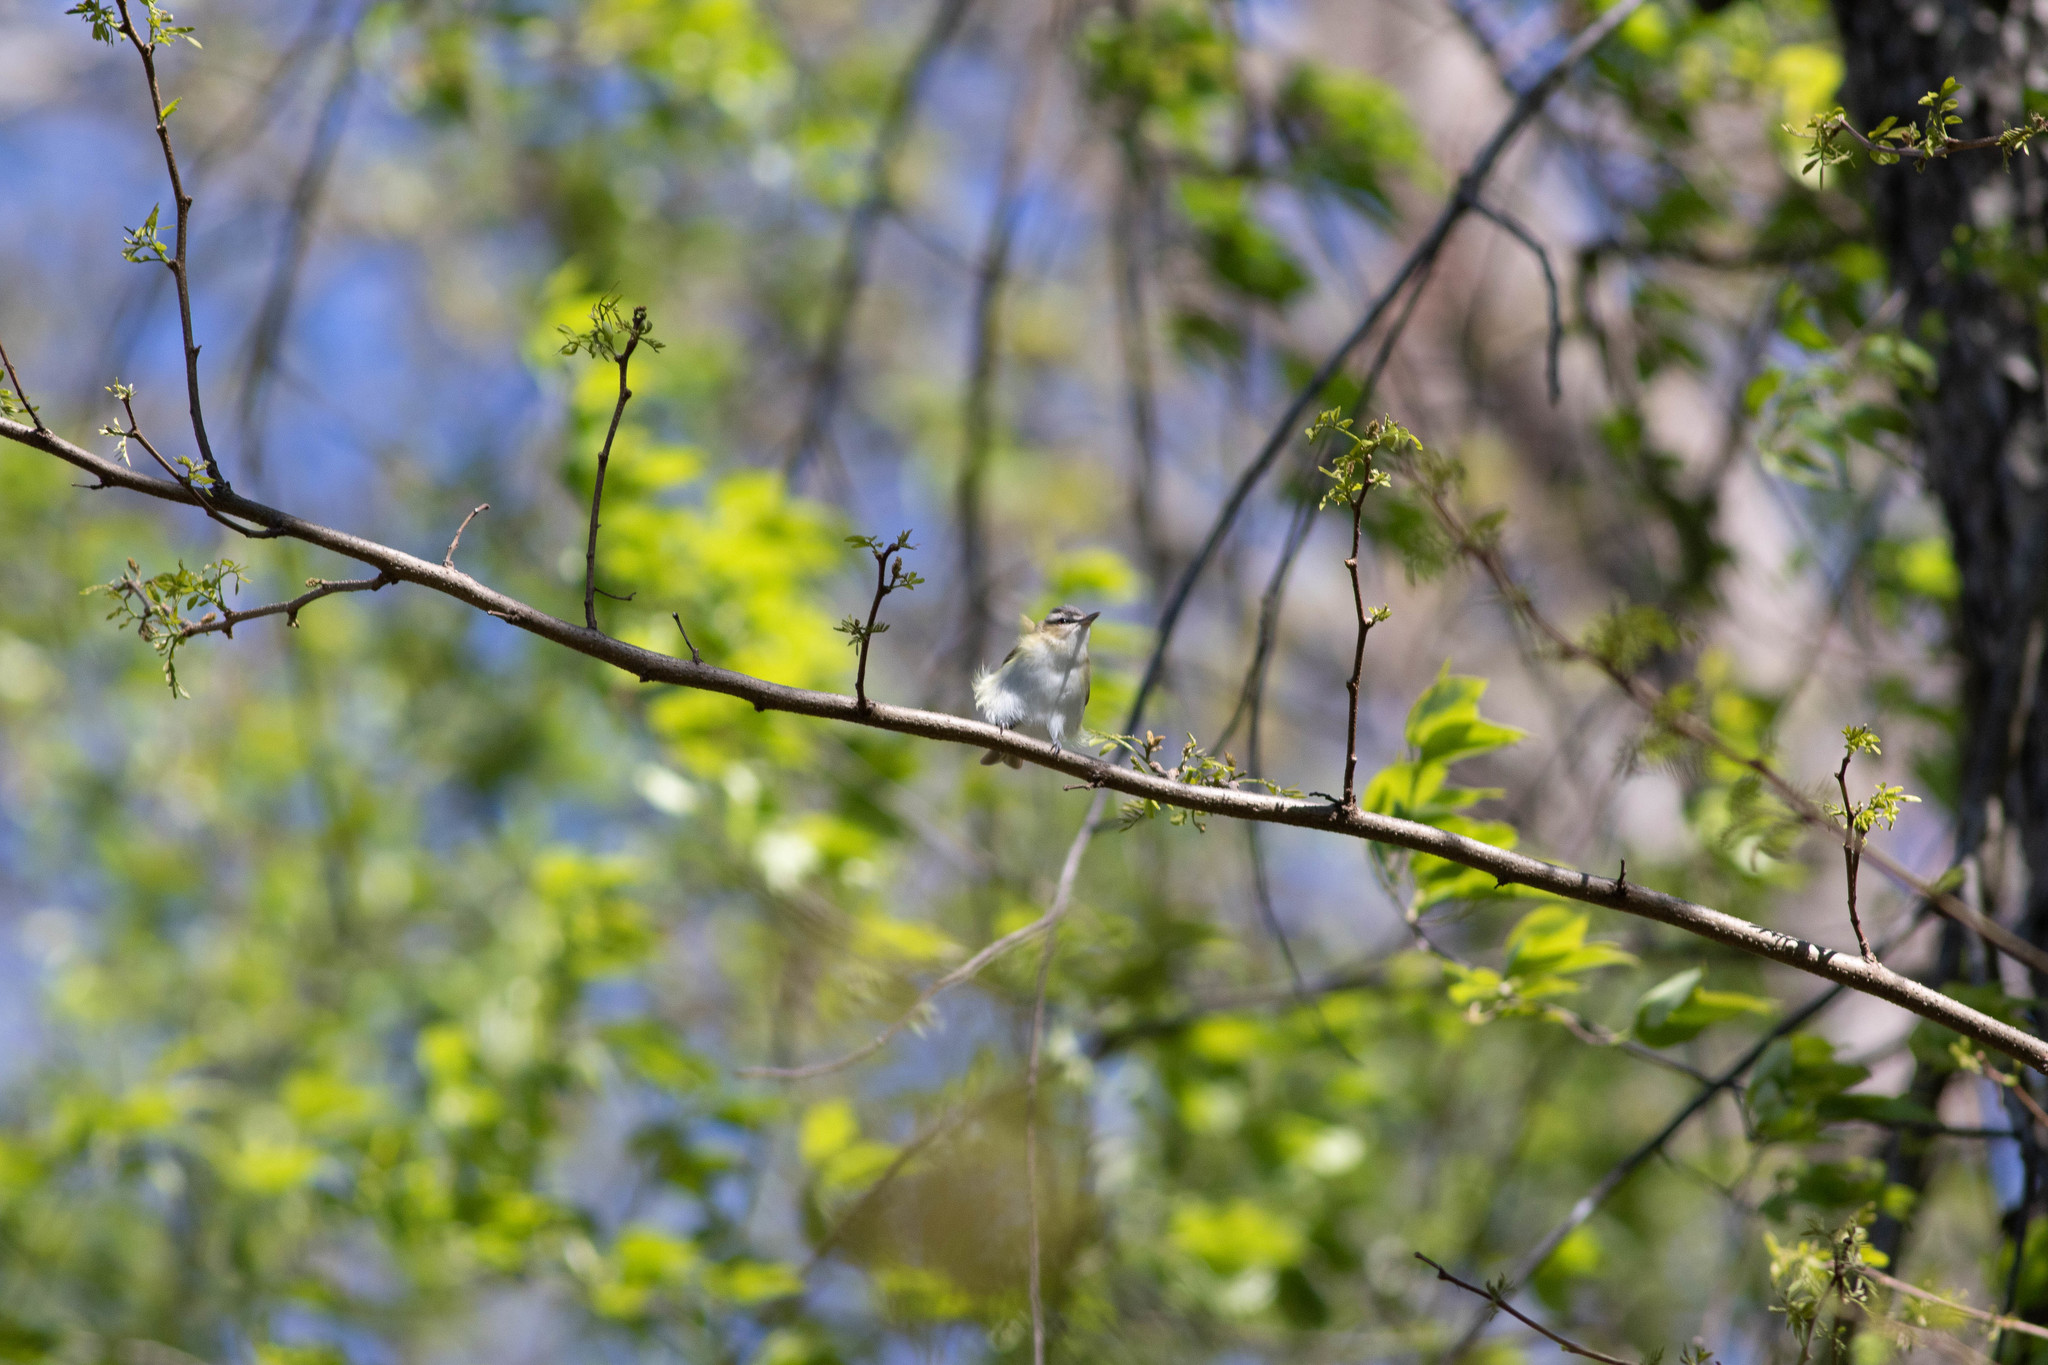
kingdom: Animalia
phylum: Chordata
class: Aves
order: Passeriformes
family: Vireonidae
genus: Vireo
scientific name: Vireo olivaceus
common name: Red-eyed vireo
